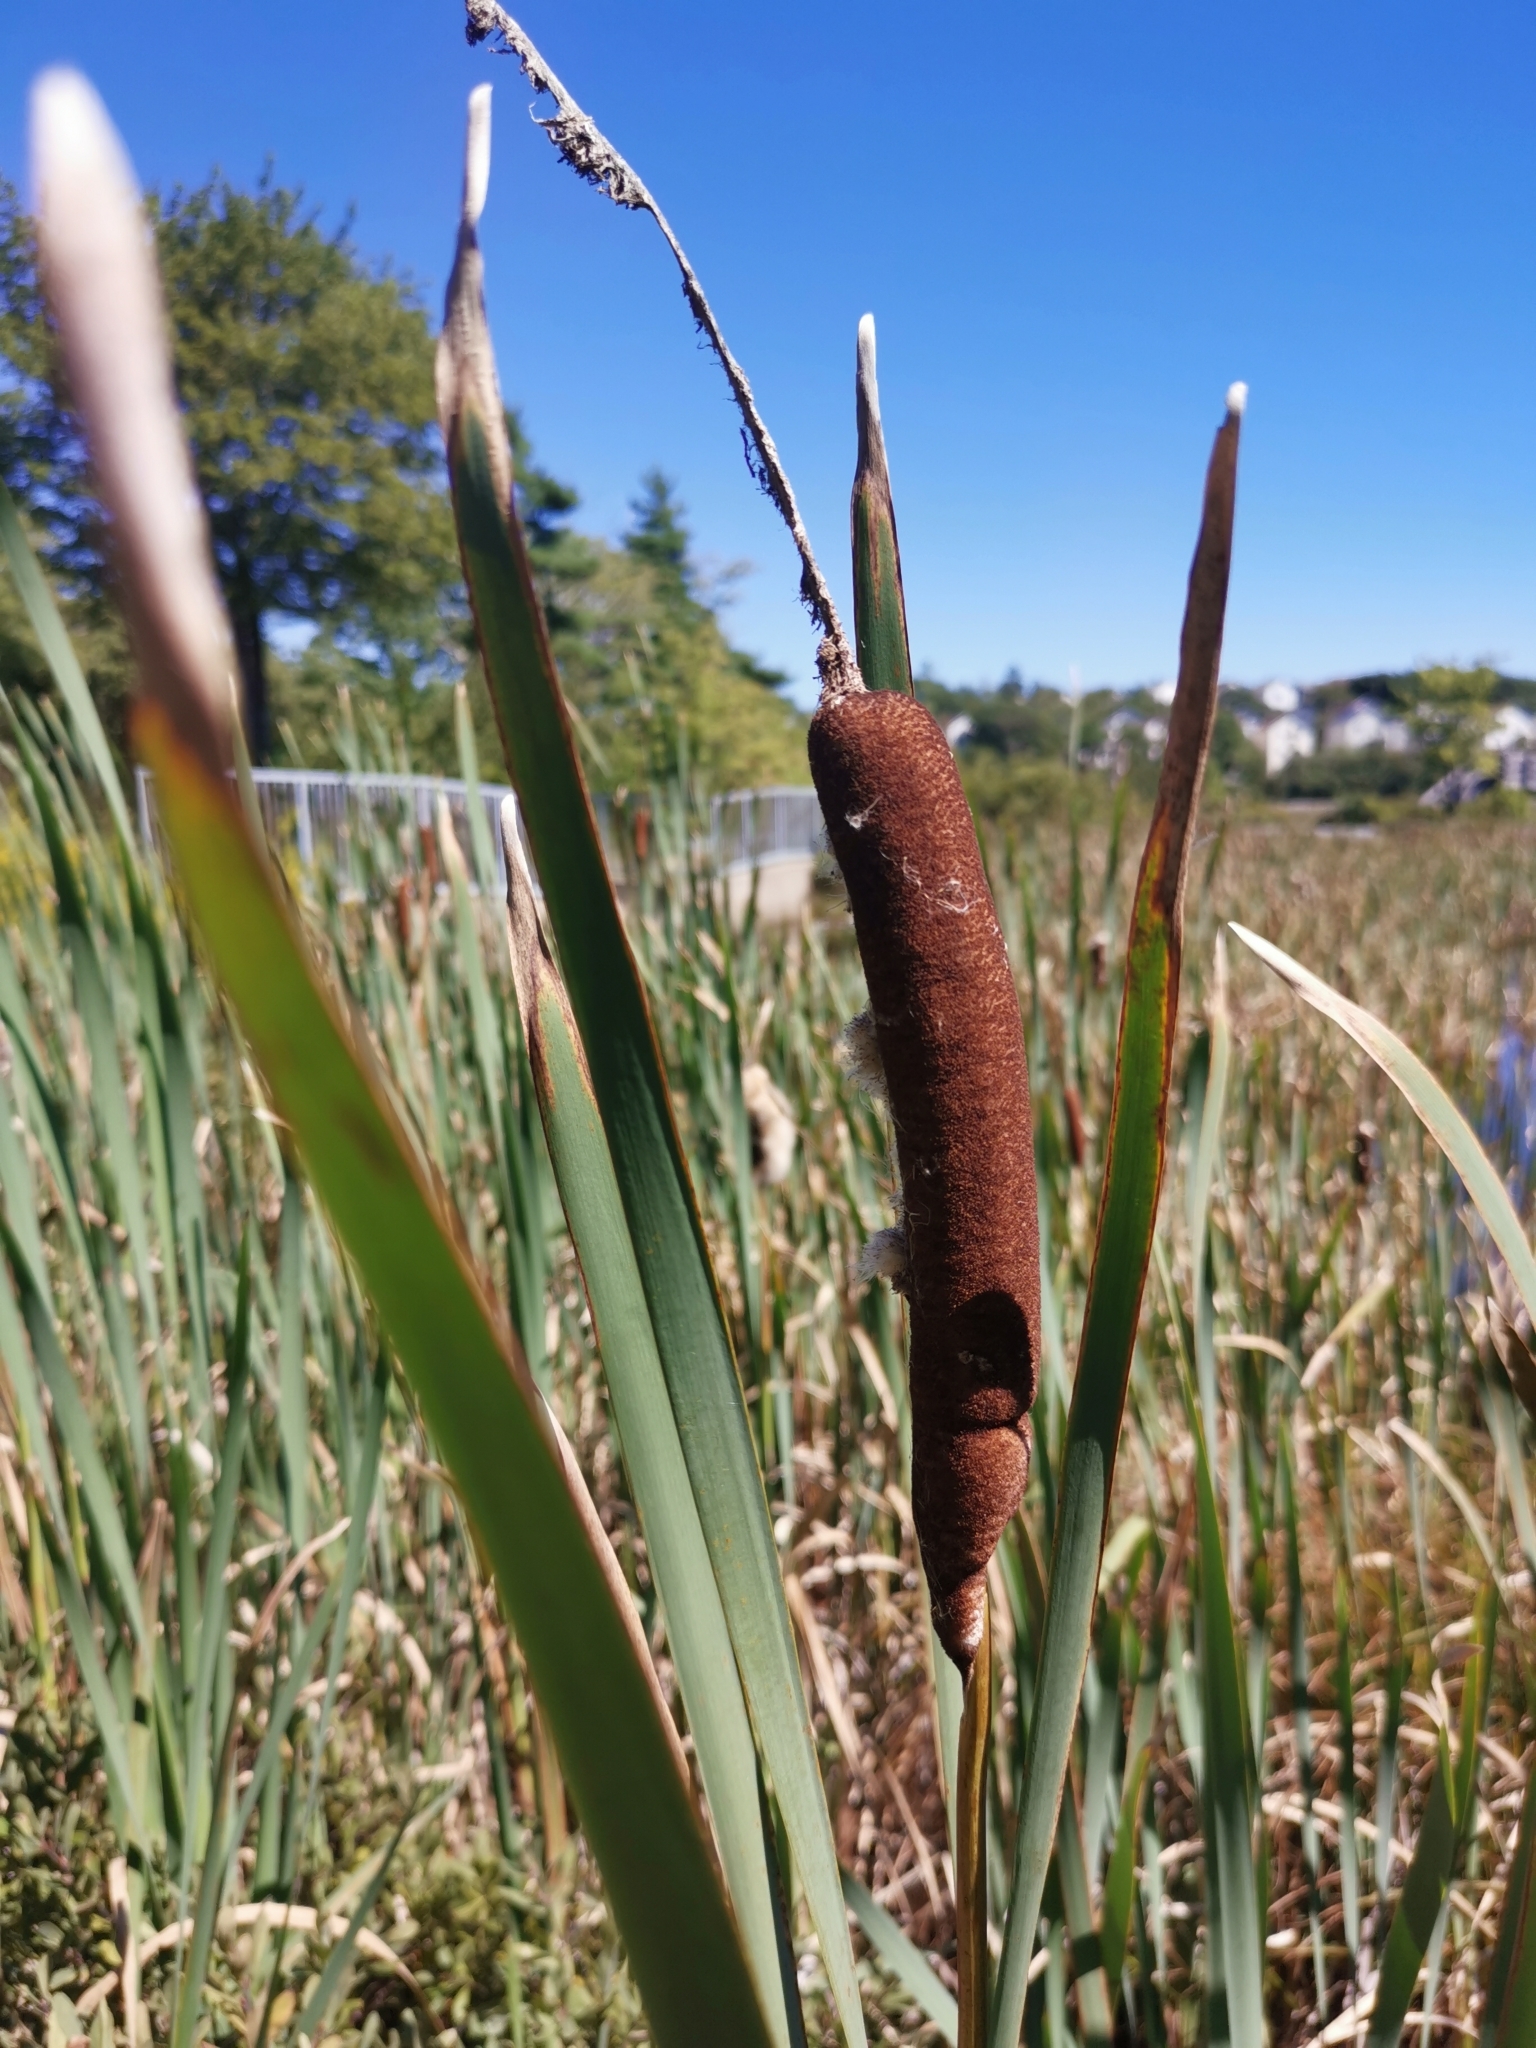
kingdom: Plantae
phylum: Tracheophyta
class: Liliopsida
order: Poales
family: Typhaceae
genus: Typha
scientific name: Typha latifolia
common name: Broadleaf cattail
